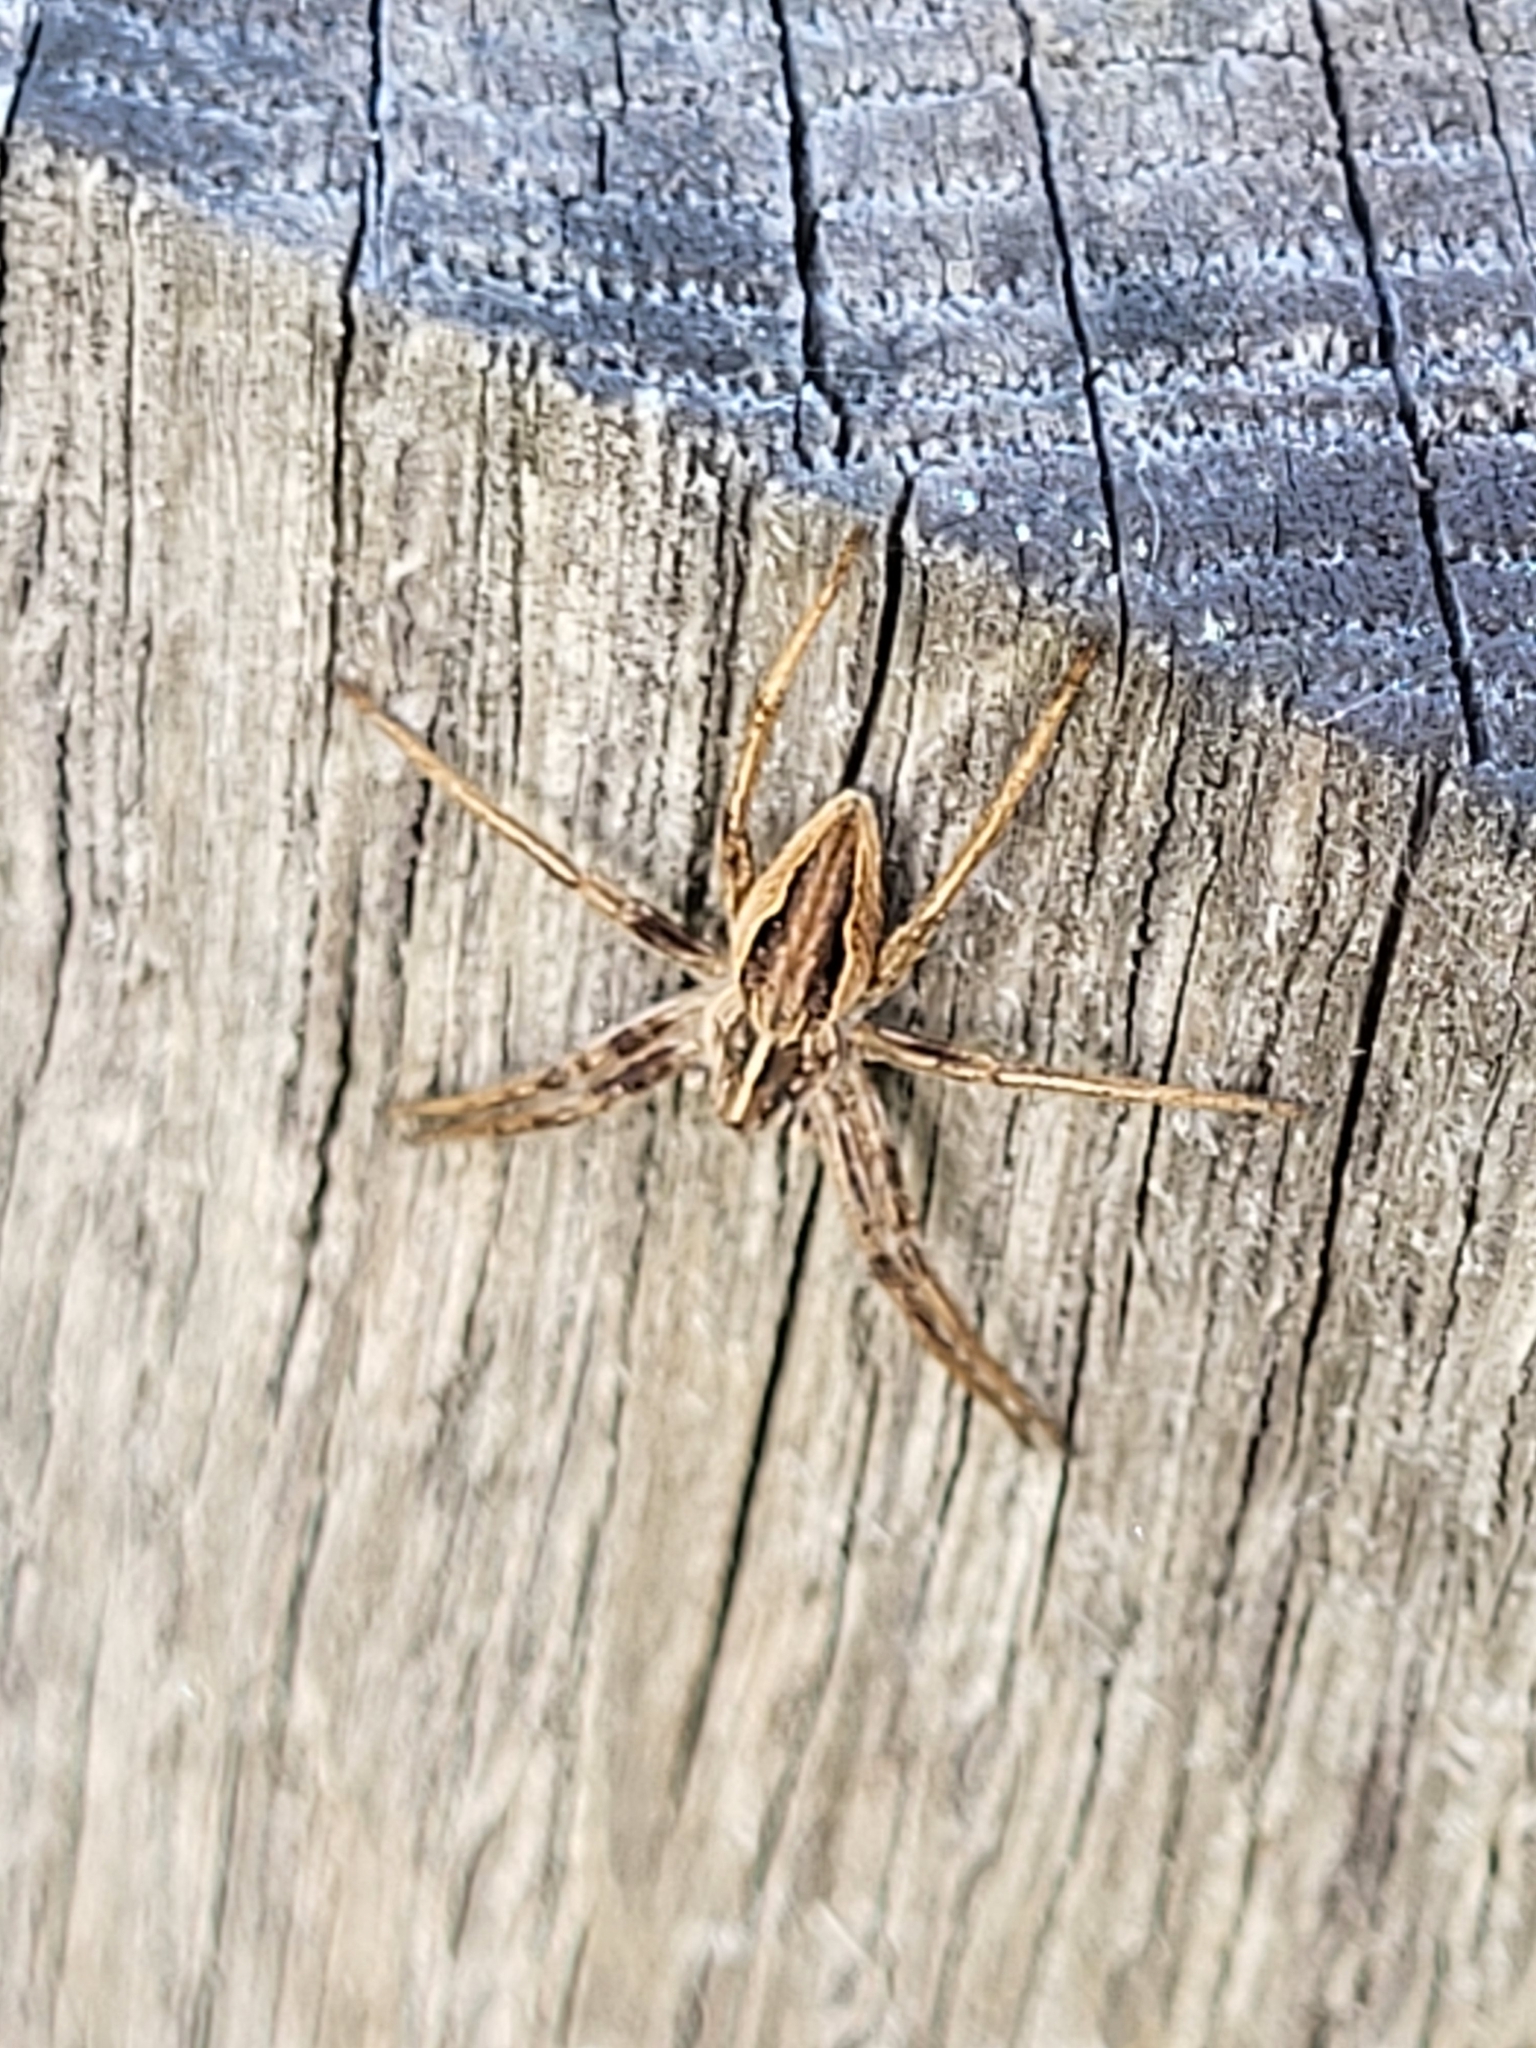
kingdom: Animalia
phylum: Arthropoda
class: Arachnida
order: Araneae
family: Pisauridae
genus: Pisaura
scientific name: Pisaura mirabilis
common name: Tent spider
